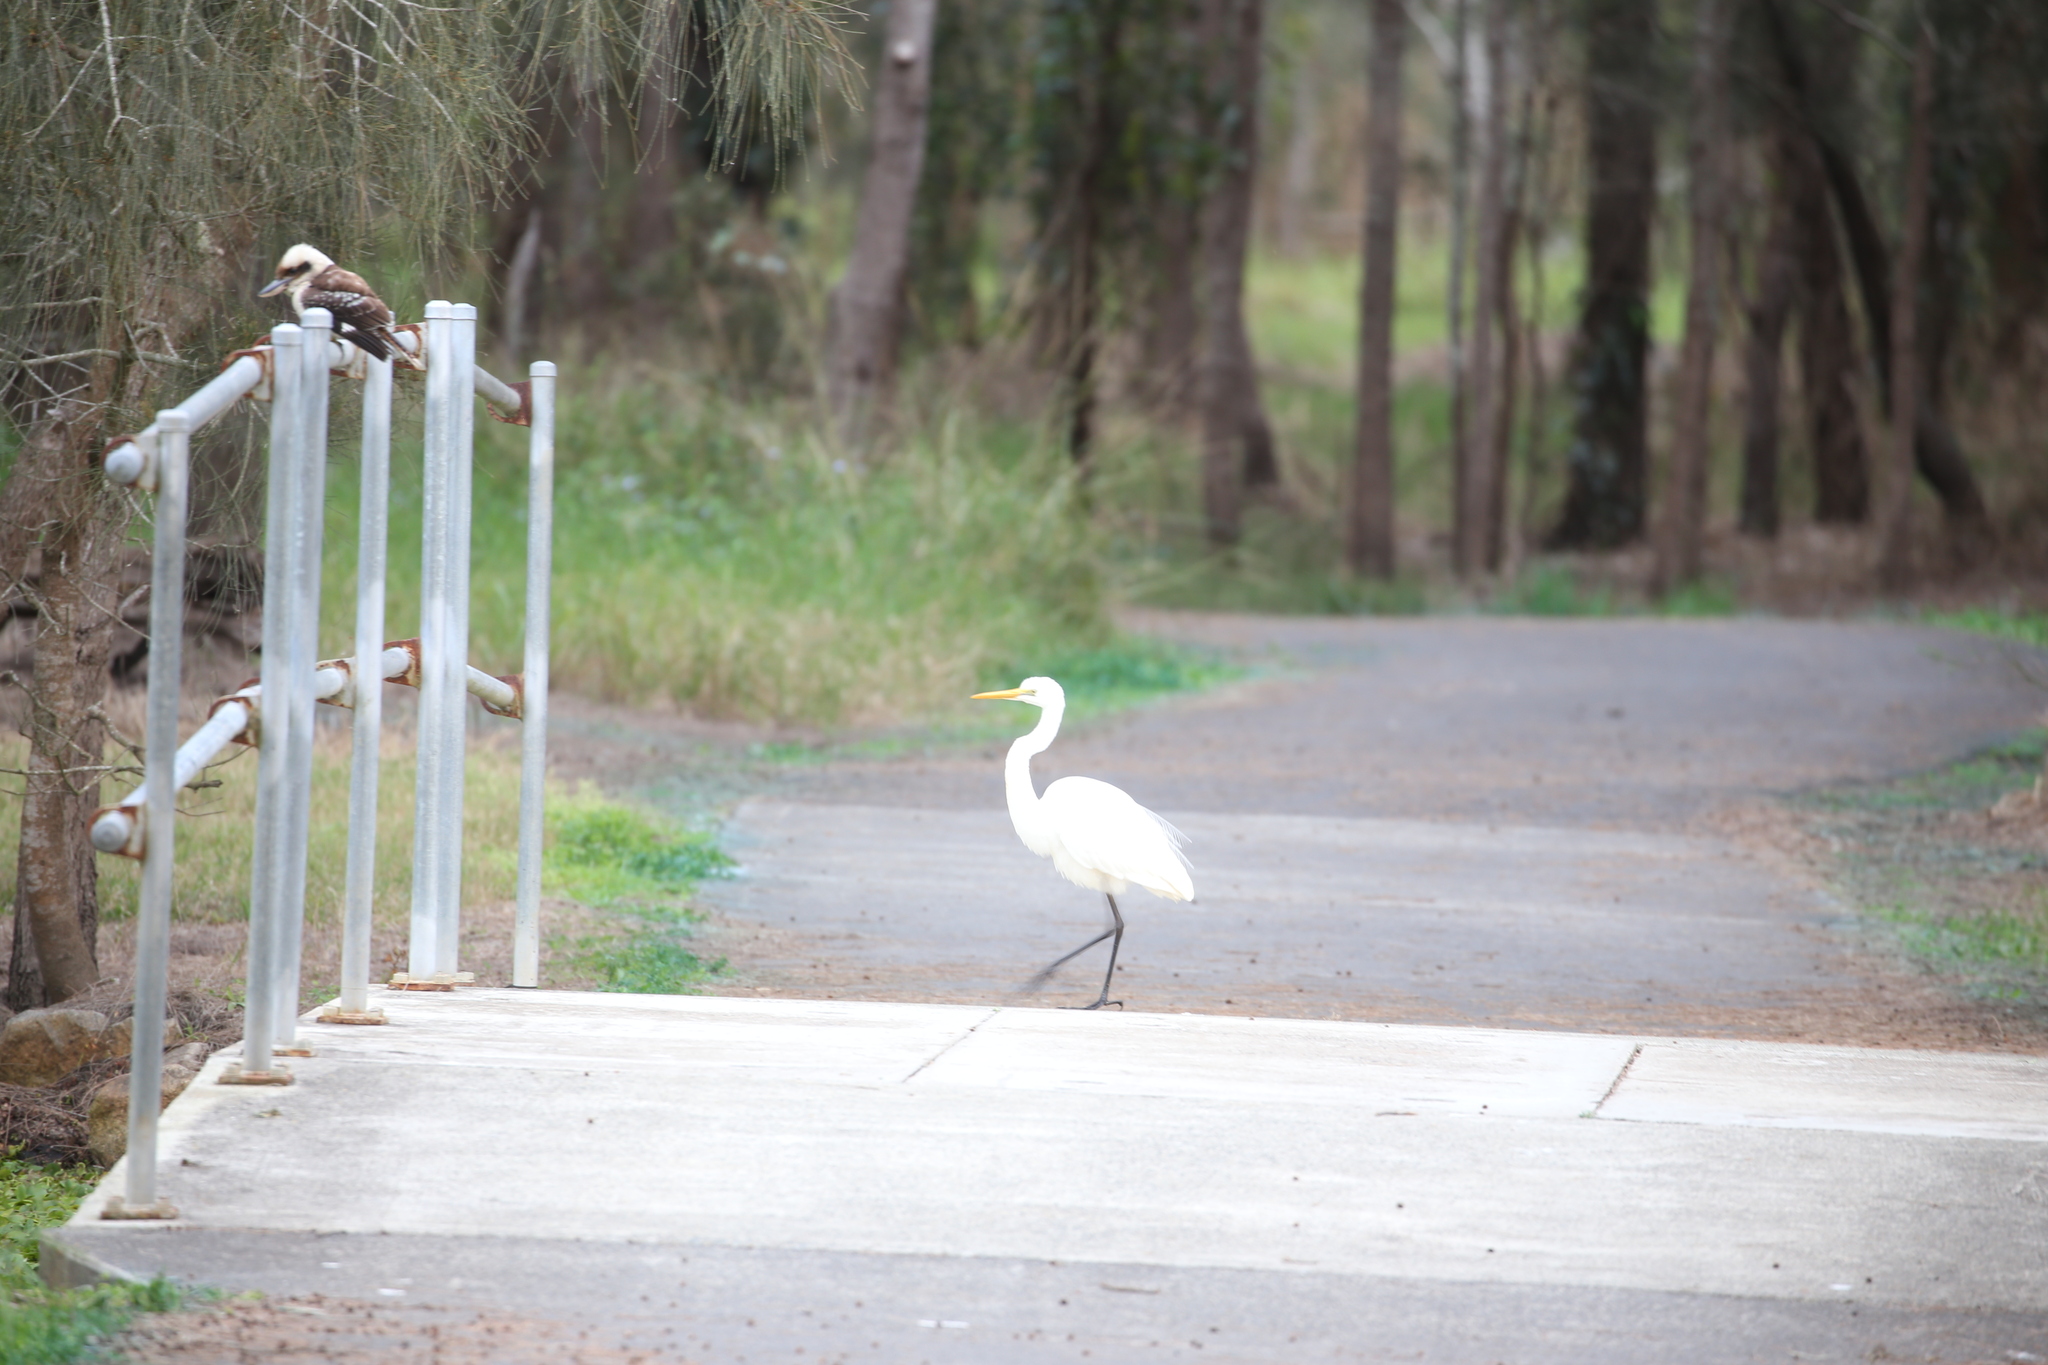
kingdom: Animalia
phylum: Chordata
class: Aves
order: Pelecaniformes
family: Ardeidae
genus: Ardea
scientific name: Ardea modesta
